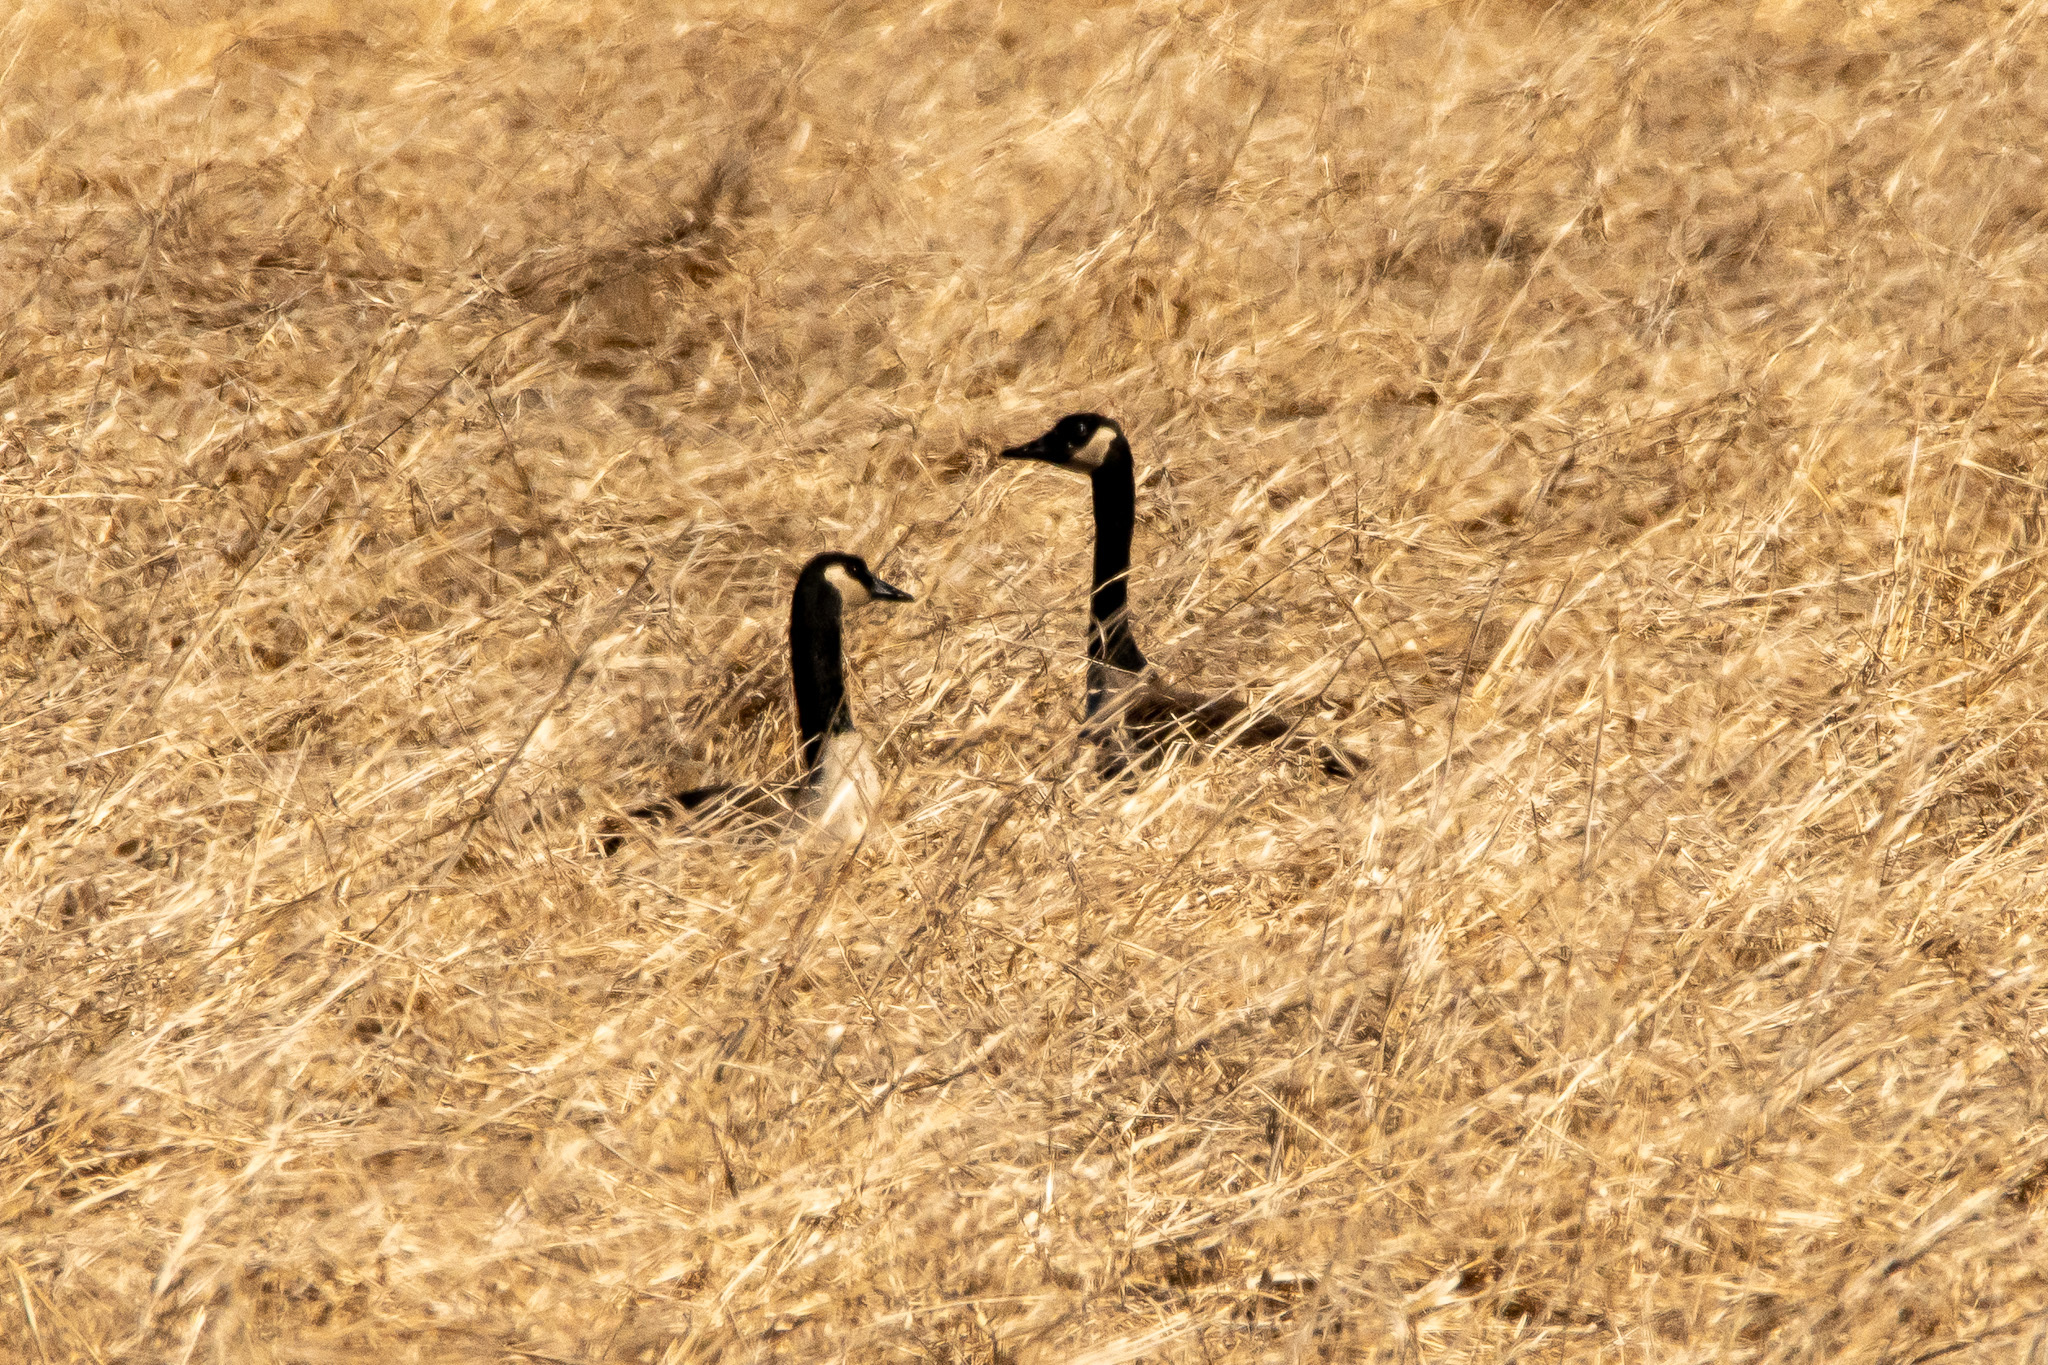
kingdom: Animalia
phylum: Chordata
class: Aves
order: Anseriformes
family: Anatidae
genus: Branta
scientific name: Branta canadensis
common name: Canada goose
